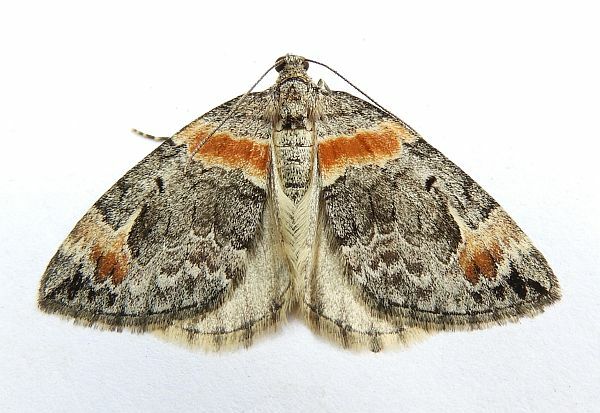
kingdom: Animalia
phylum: Arthropoda
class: Insecta
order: Lepidoptera
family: Geometridae
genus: Dysstroma
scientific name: Dysstroma hersiliata
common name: Orange-barred carpet
